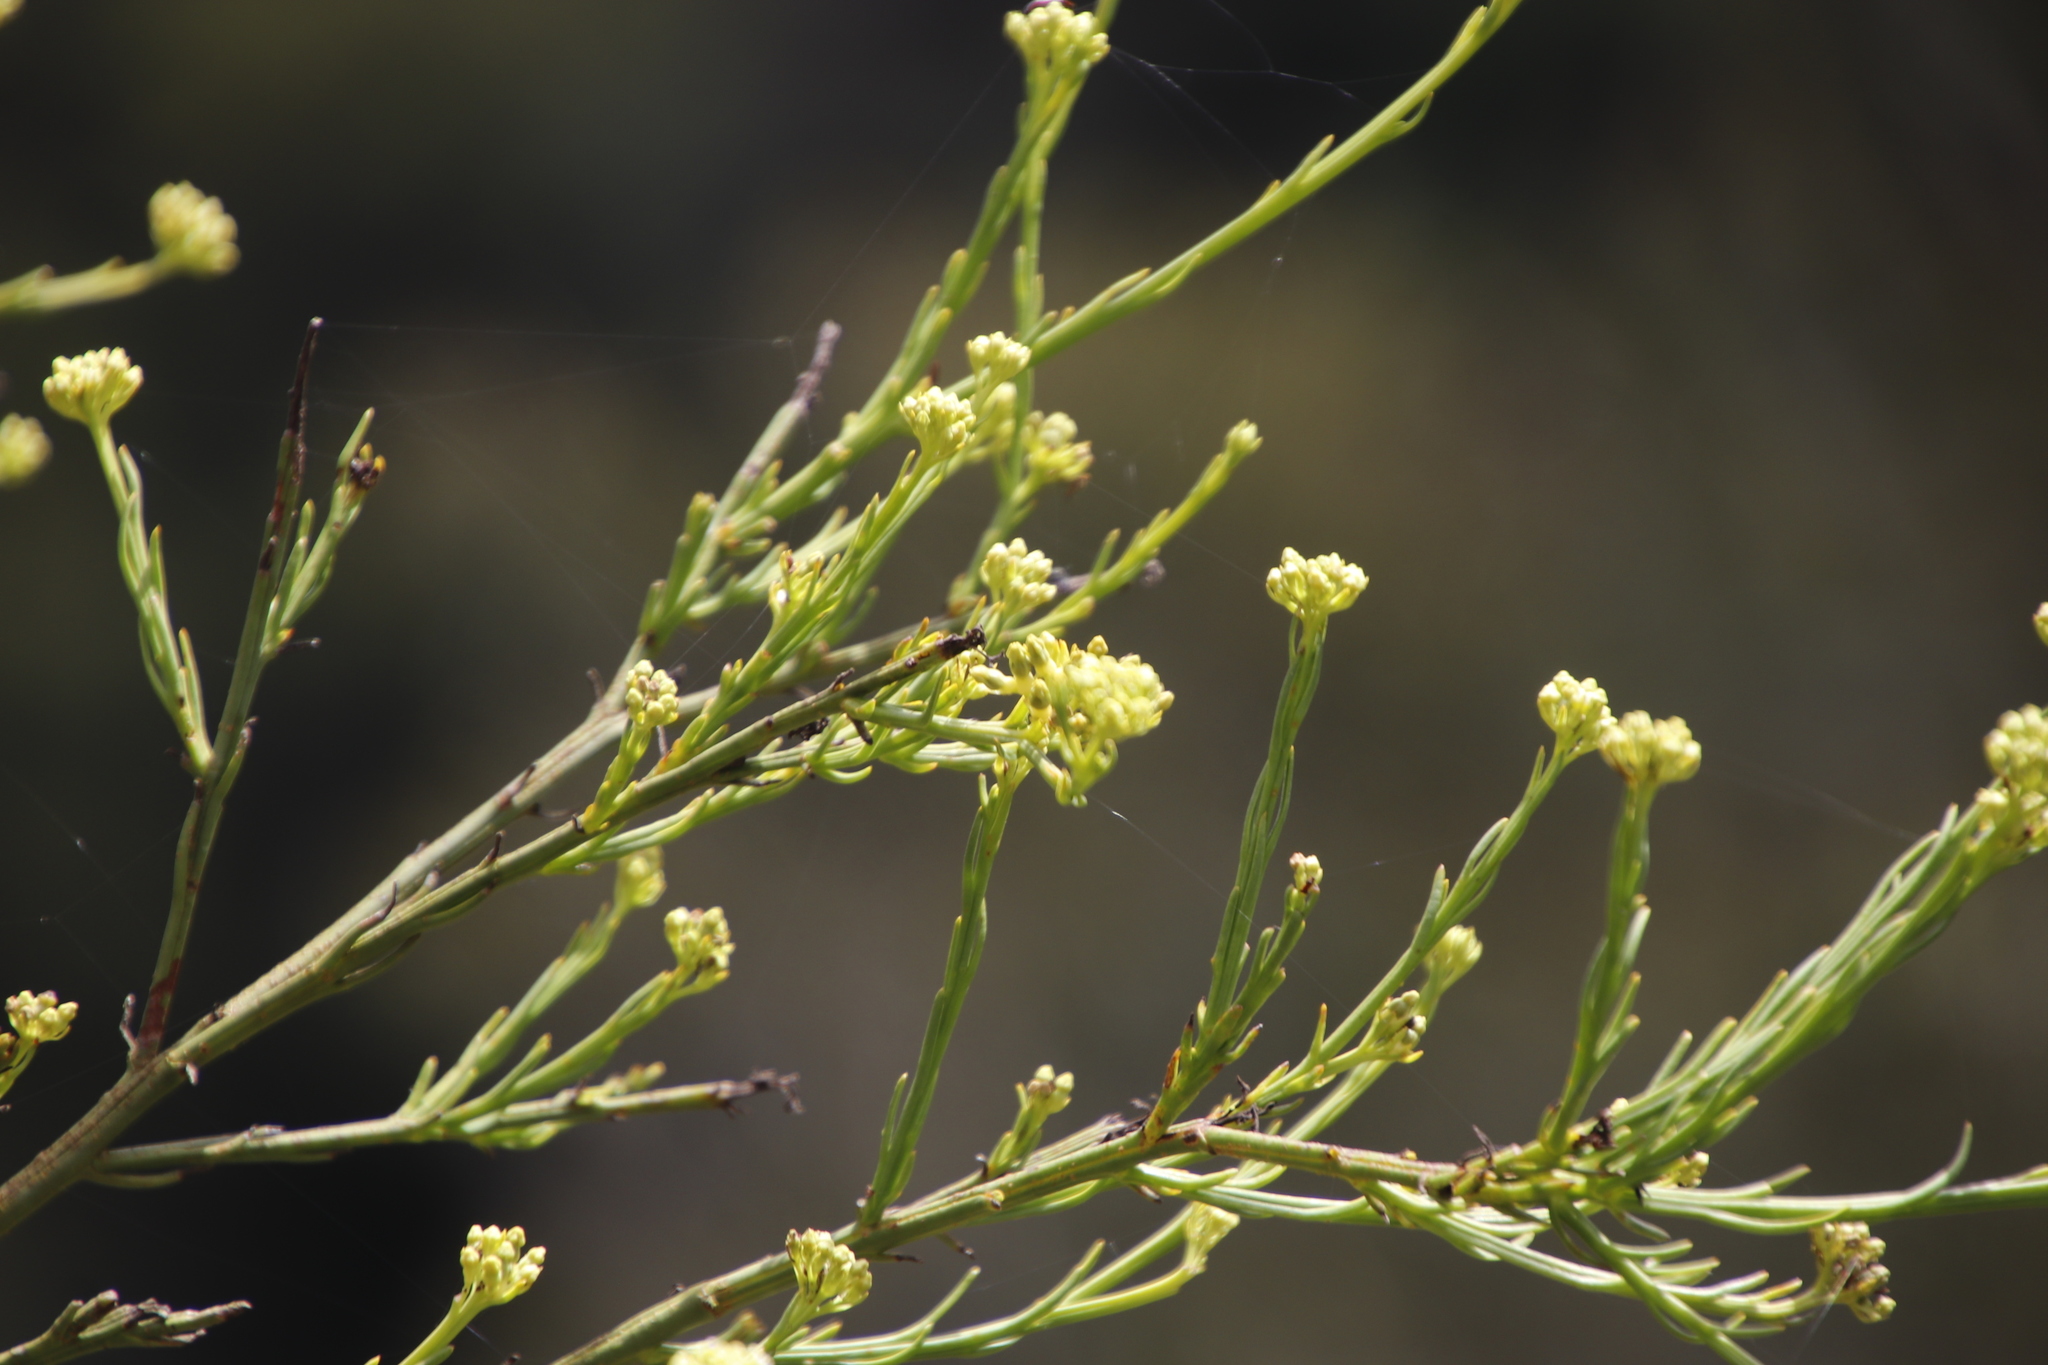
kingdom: Plantae
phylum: Tracheophyta
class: Magnoliopsida
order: Santalales
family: Thesiaceae
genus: Thesium
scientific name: Thesium strictum
